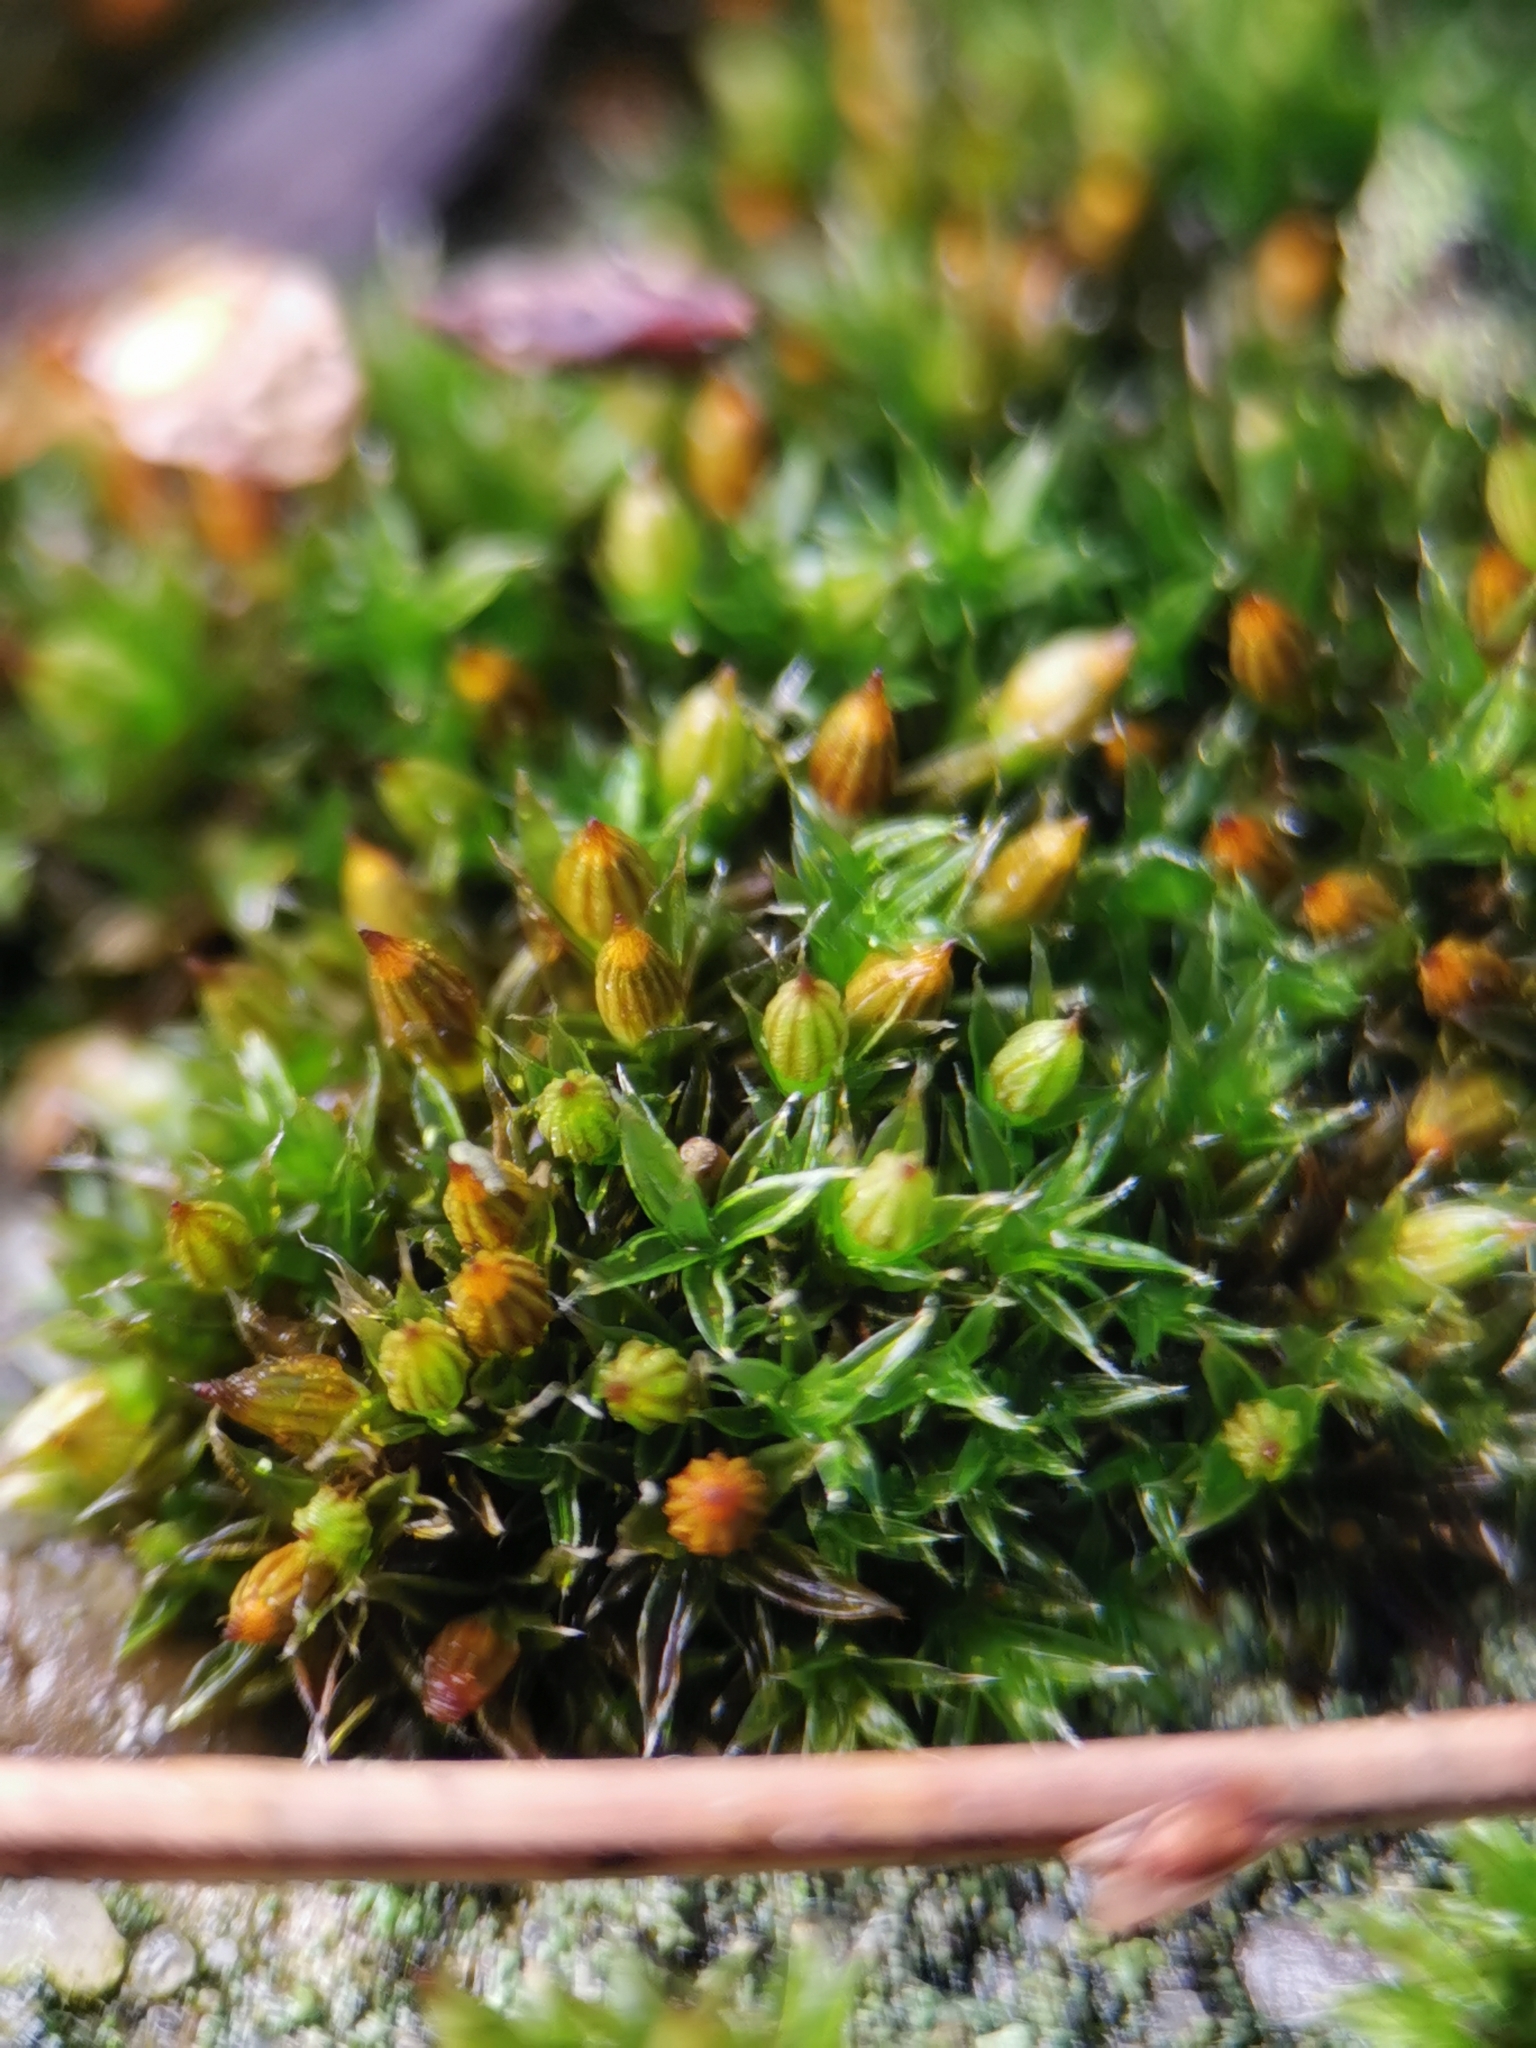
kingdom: Plantae
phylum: Bryophyta
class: Bryopsida
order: Orthotrichales
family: Orthotrichaceae
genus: Orthotrichum
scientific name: Orthotrichum diaphanum
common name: White-tipped bristle-moss
